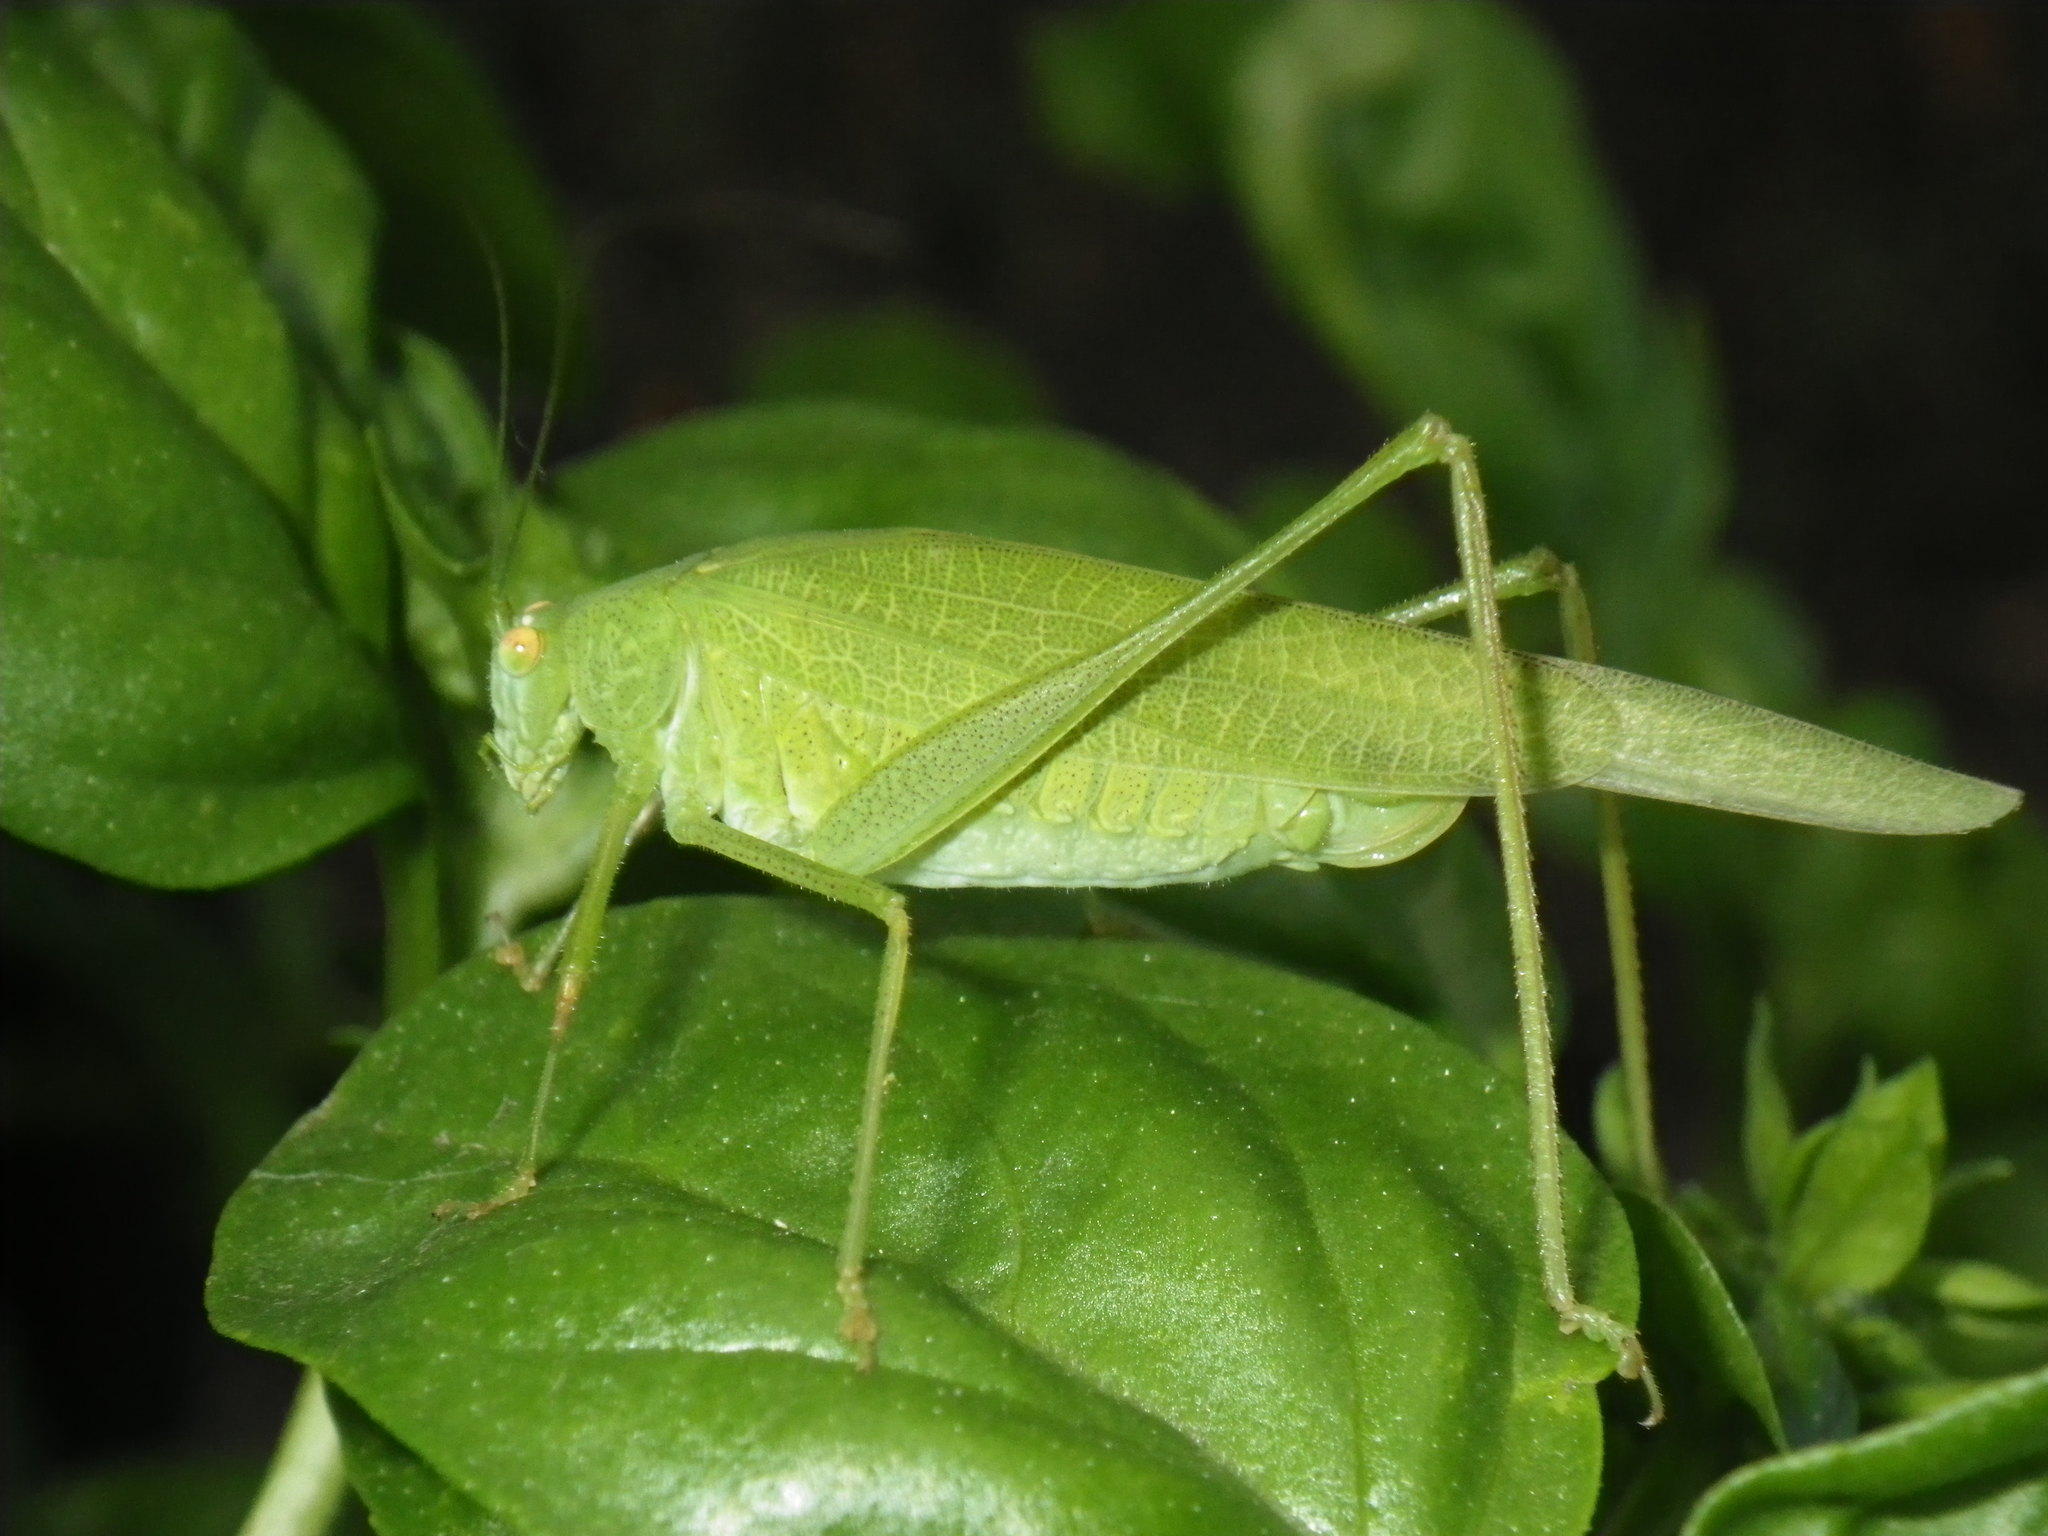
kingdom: Animalia
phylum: Arthropoda
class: Insecta
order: Orthoptera
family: Tettigoniidae
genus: Phaneroptera
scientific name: Phaneroptera nana
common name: Southern sickle bush-cricket
